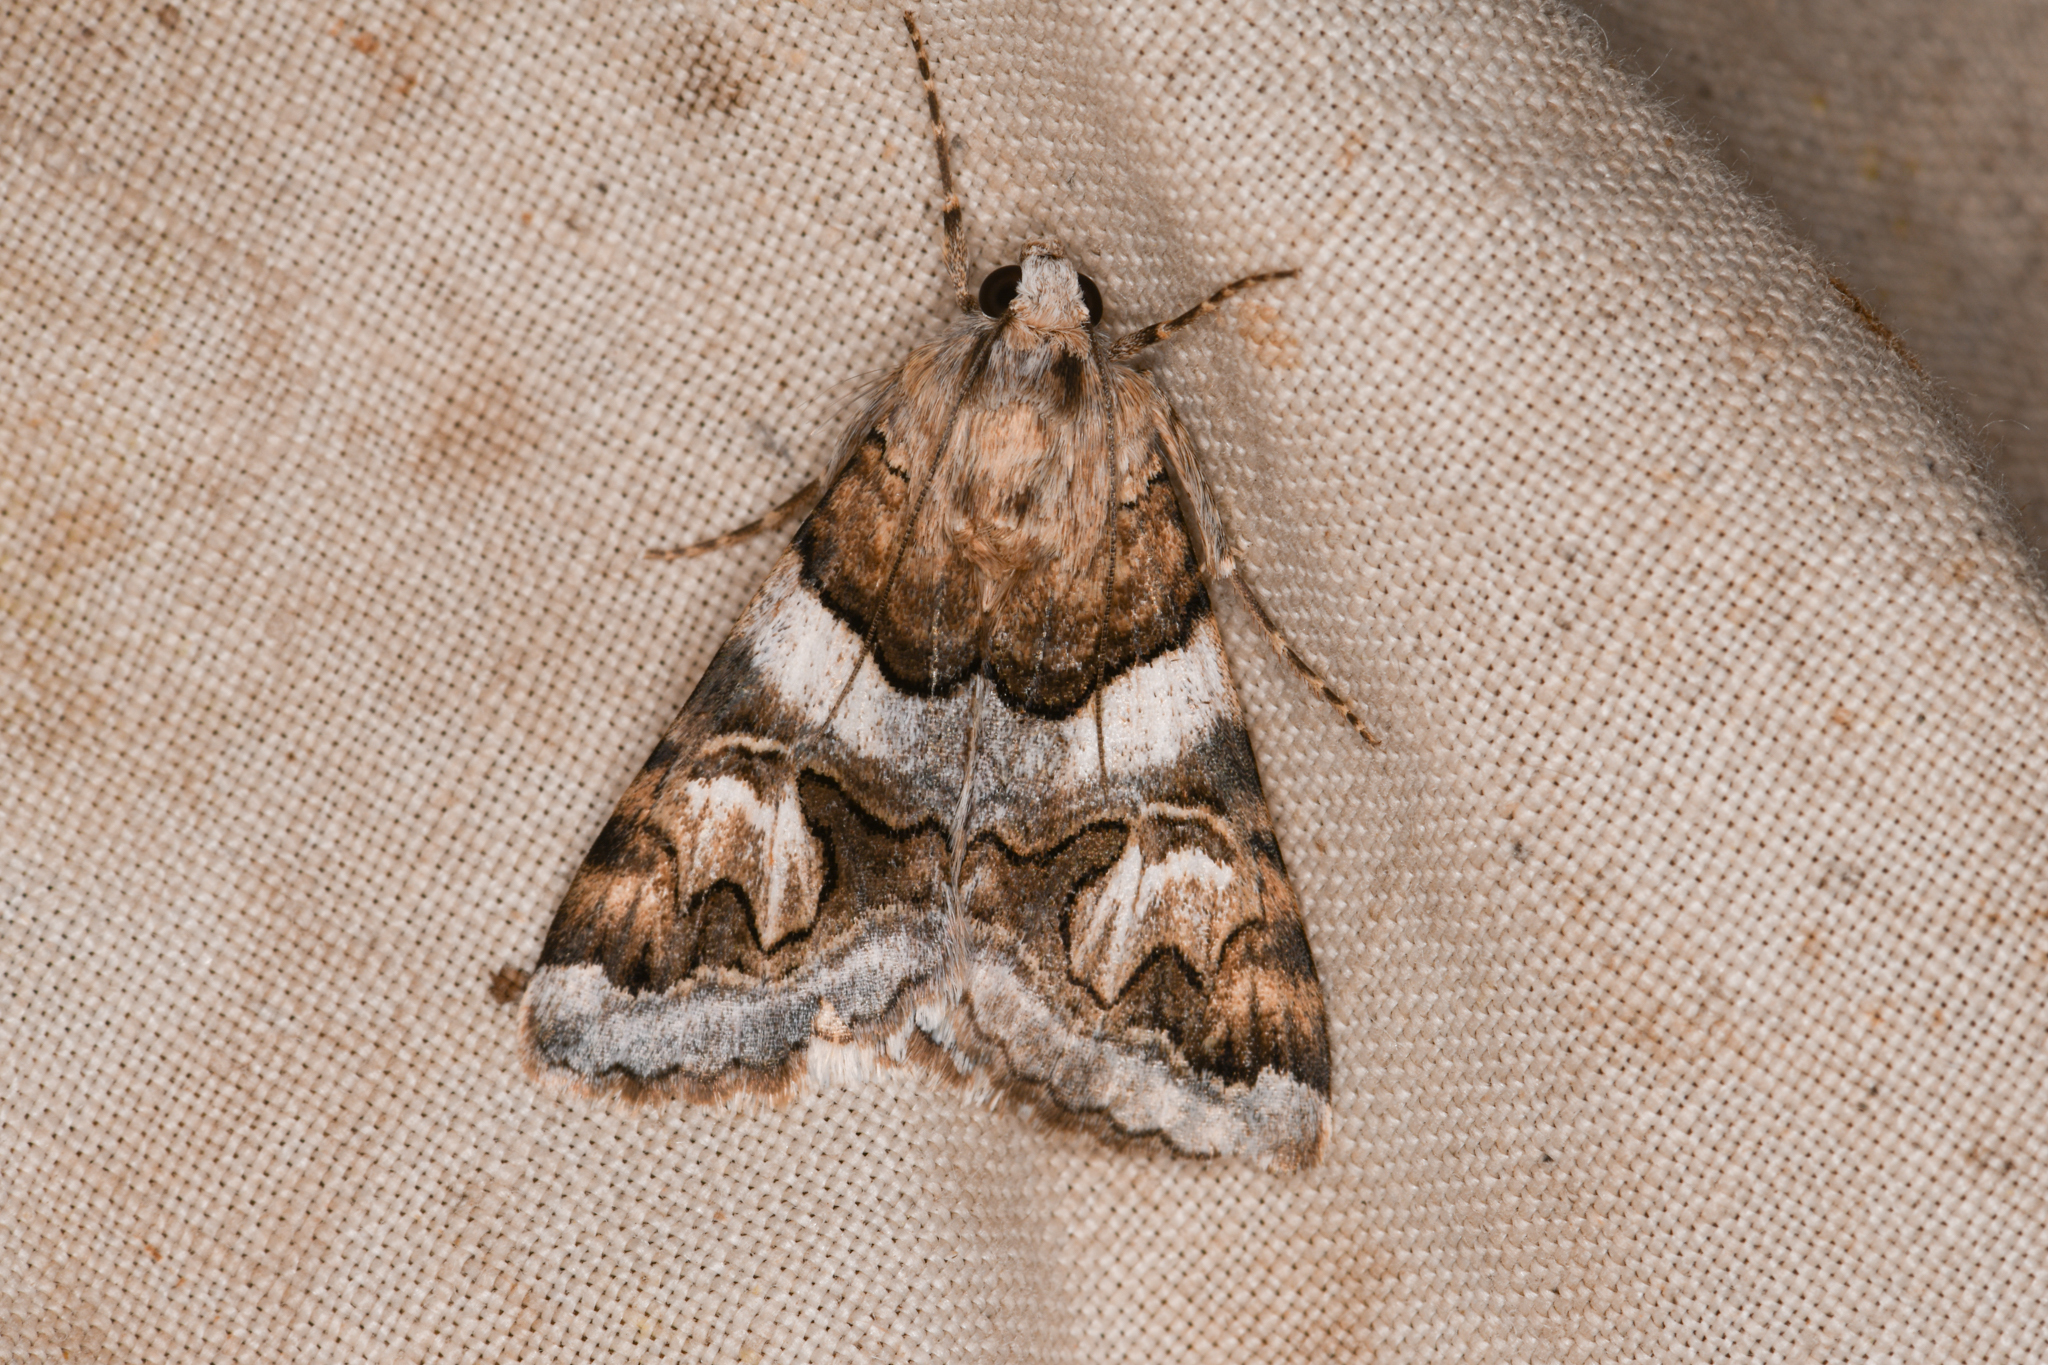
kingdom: Animalia
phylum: Arthropoda
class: Insecta
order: Lepidoptera
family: Erebidae
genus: Drasteria
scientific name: Drasteria howlandii
